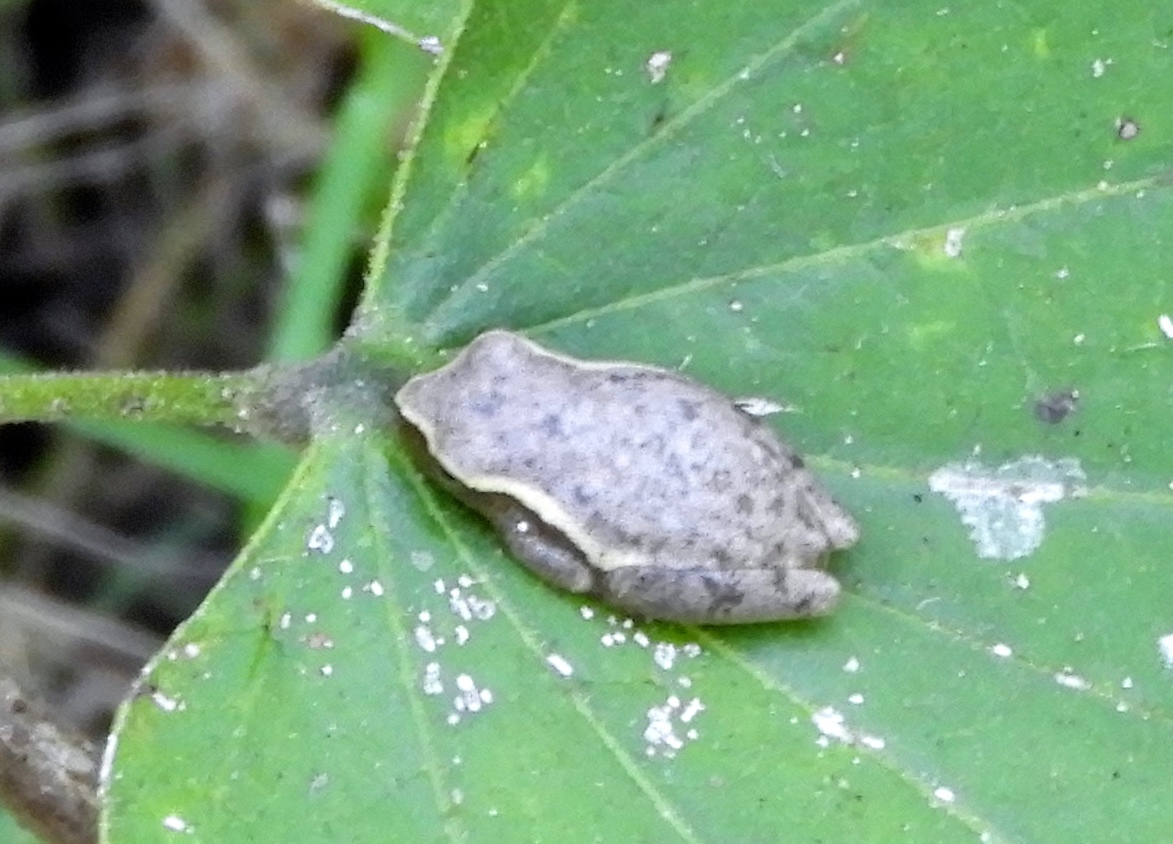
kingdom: Animalia
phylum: Chordata
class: Amphibia
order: Anura
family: Hylidae
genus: Tlalocohyla
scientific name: Tlalocohyla smithii
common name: Dwarf mexican treefrog
